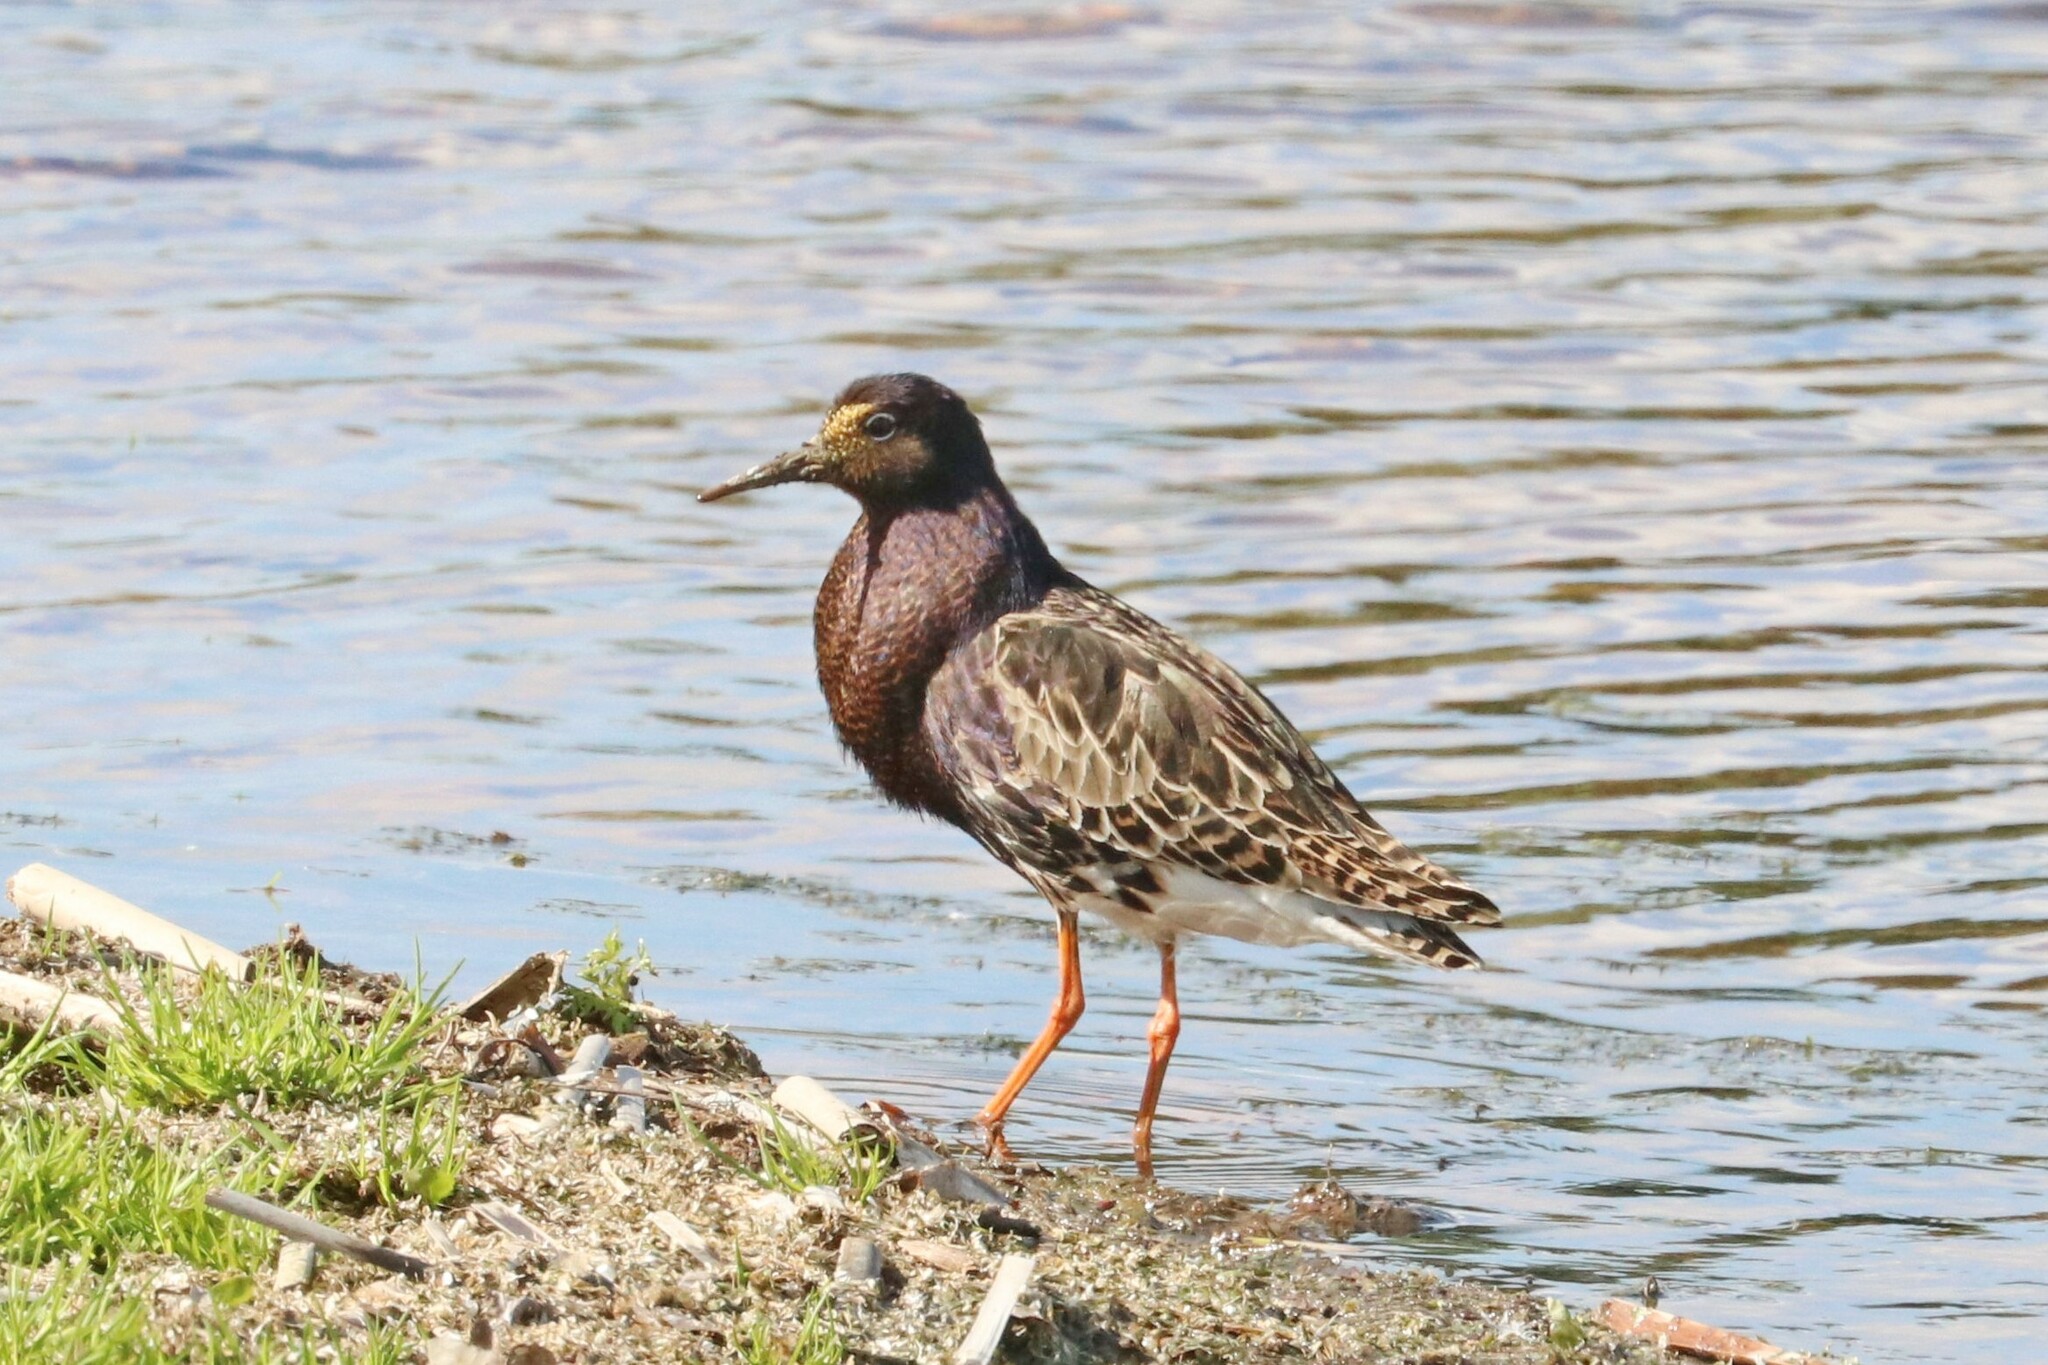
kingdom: Animalia
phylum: Chordata
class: Aves
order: Charadriiformes
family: Scolopacidae
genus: Calidris
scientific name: Calidris pugnax
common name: Ruff
